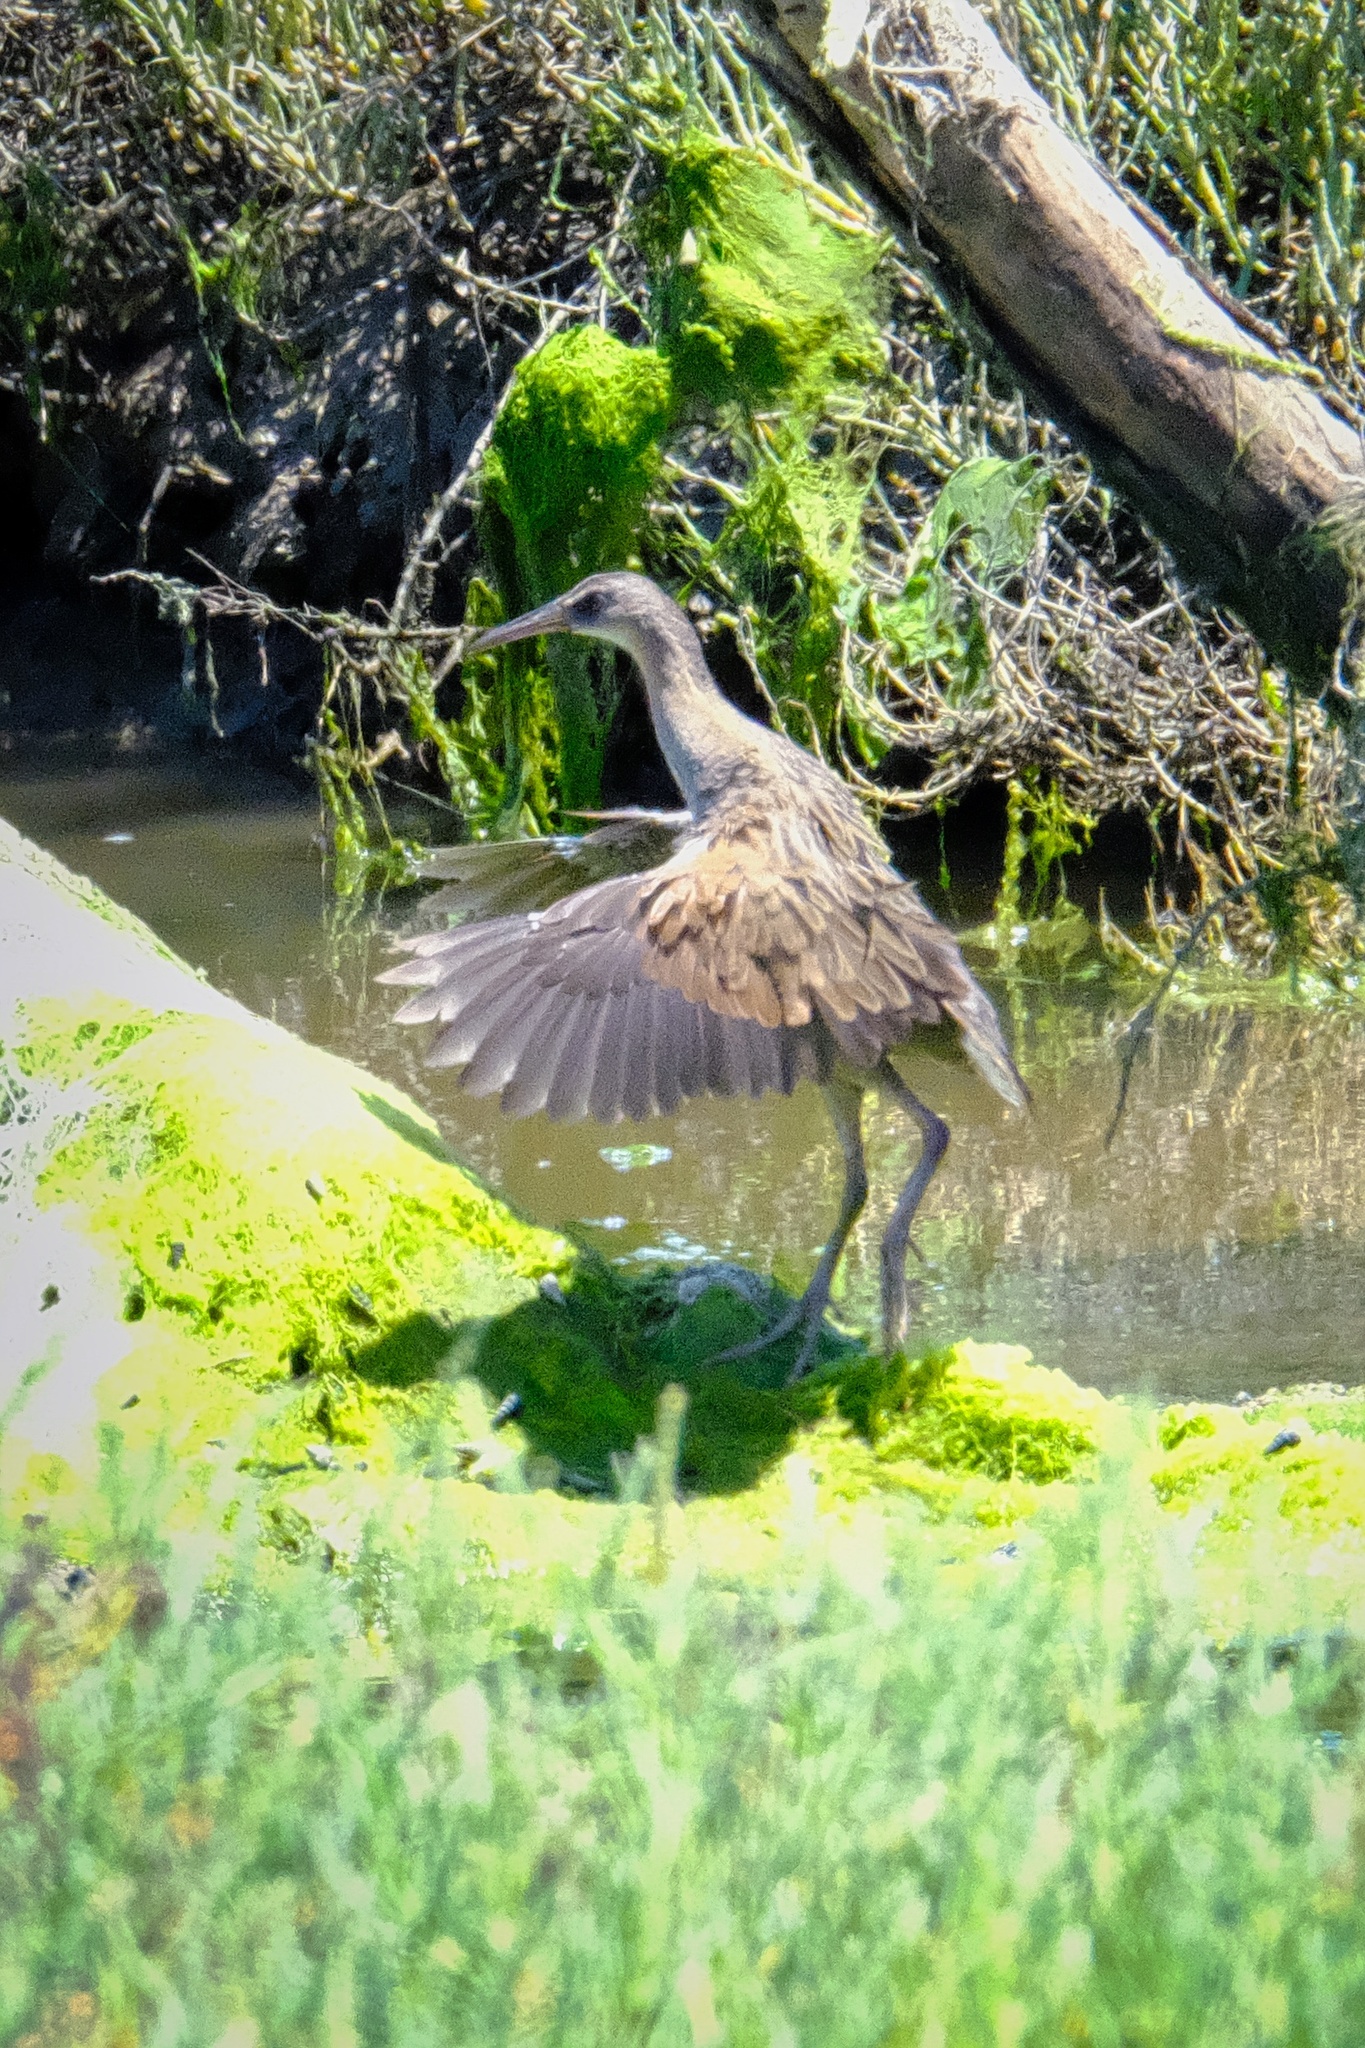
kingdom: Animalia
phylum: Chordata
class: Aves
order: Gruiformes
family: Rallidae
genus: Rallus
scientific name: Rallus obsoletus
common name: Ridgway's rail
